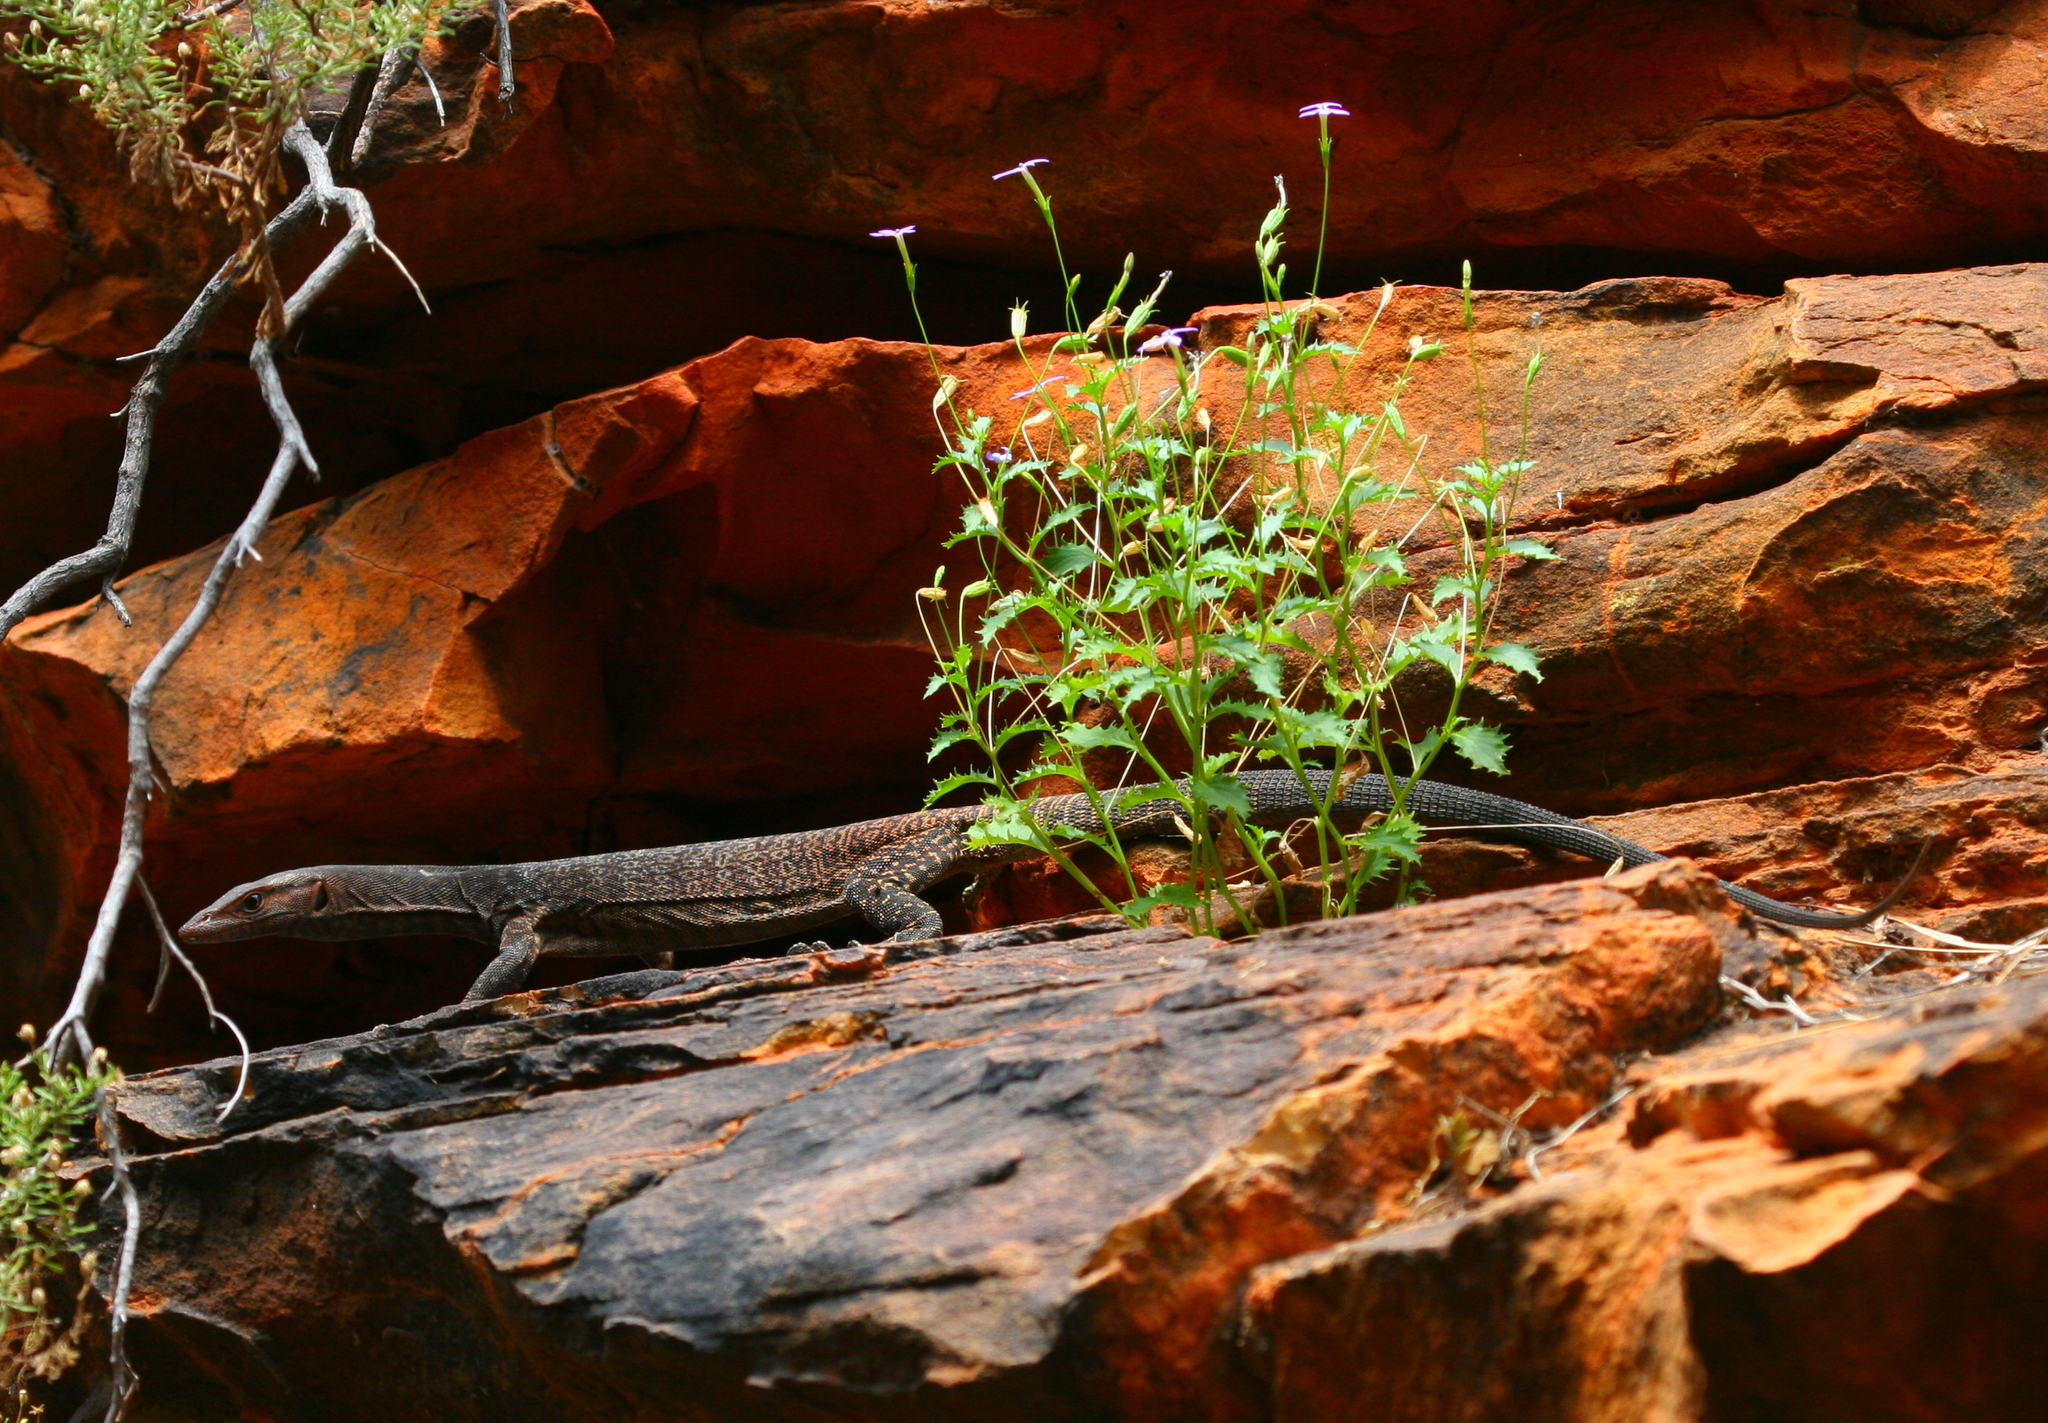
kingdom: Animalia
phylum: Chordata
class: Squamata
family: Varanidae
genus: Varanus
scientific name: Varanus tristis
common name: Arid monitor
